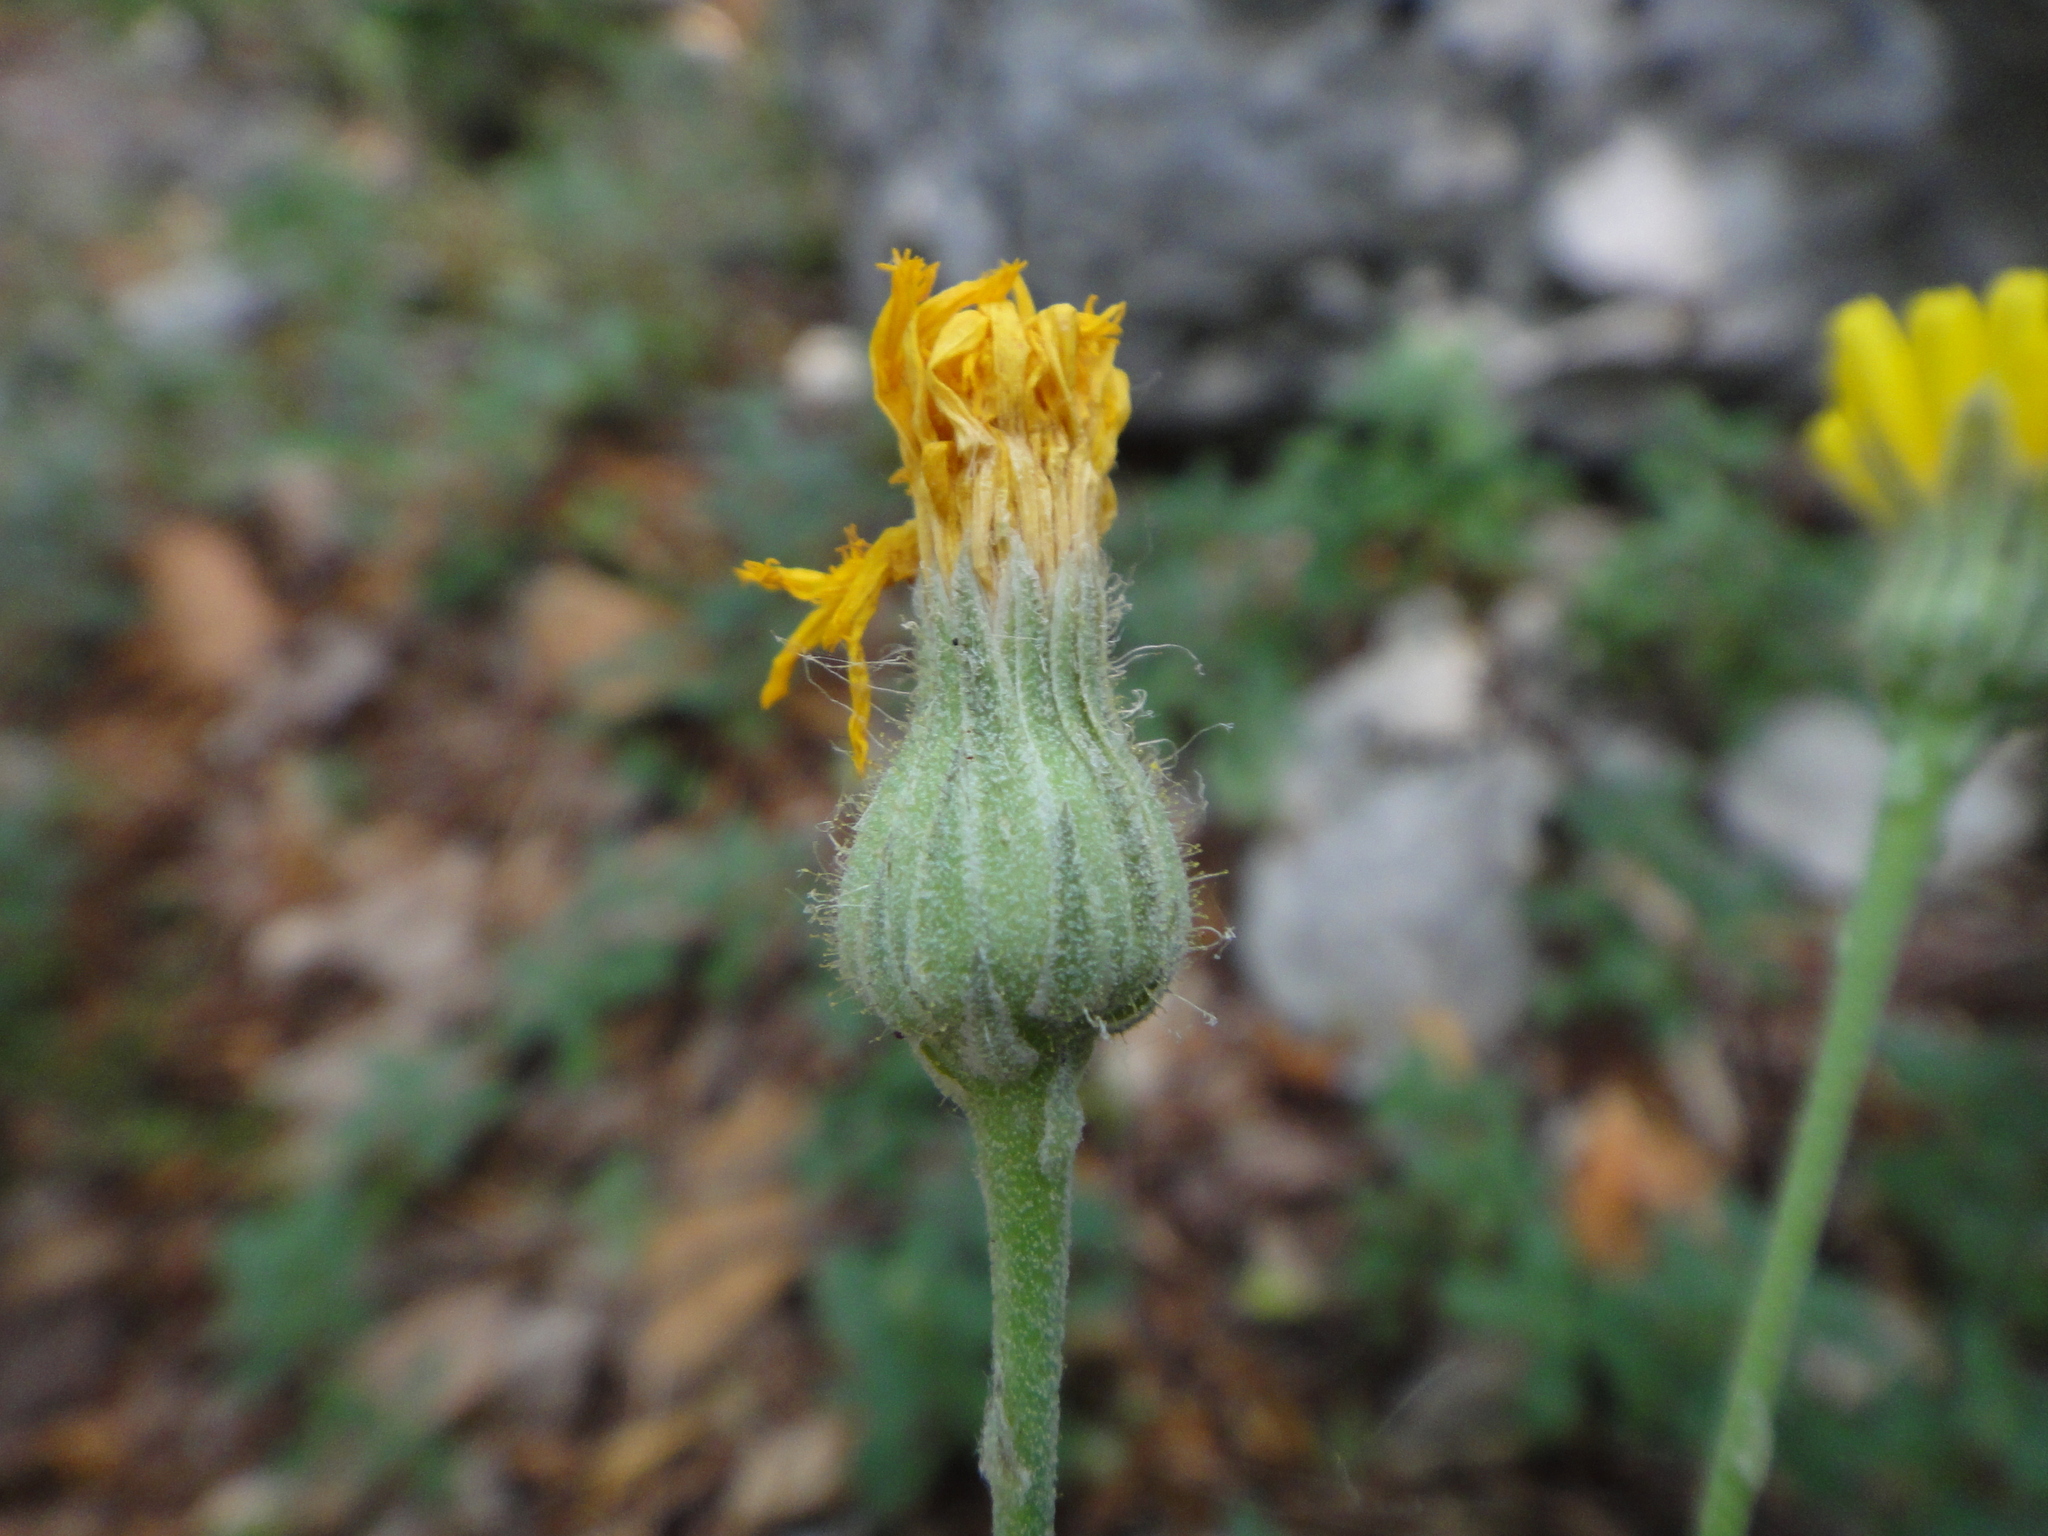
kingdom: Plantae
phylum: Tracheophyta
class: Magnoliopsida
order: Asterales
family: Asteraceae
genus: Hieracium
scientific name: Hieracium waldsteinii
